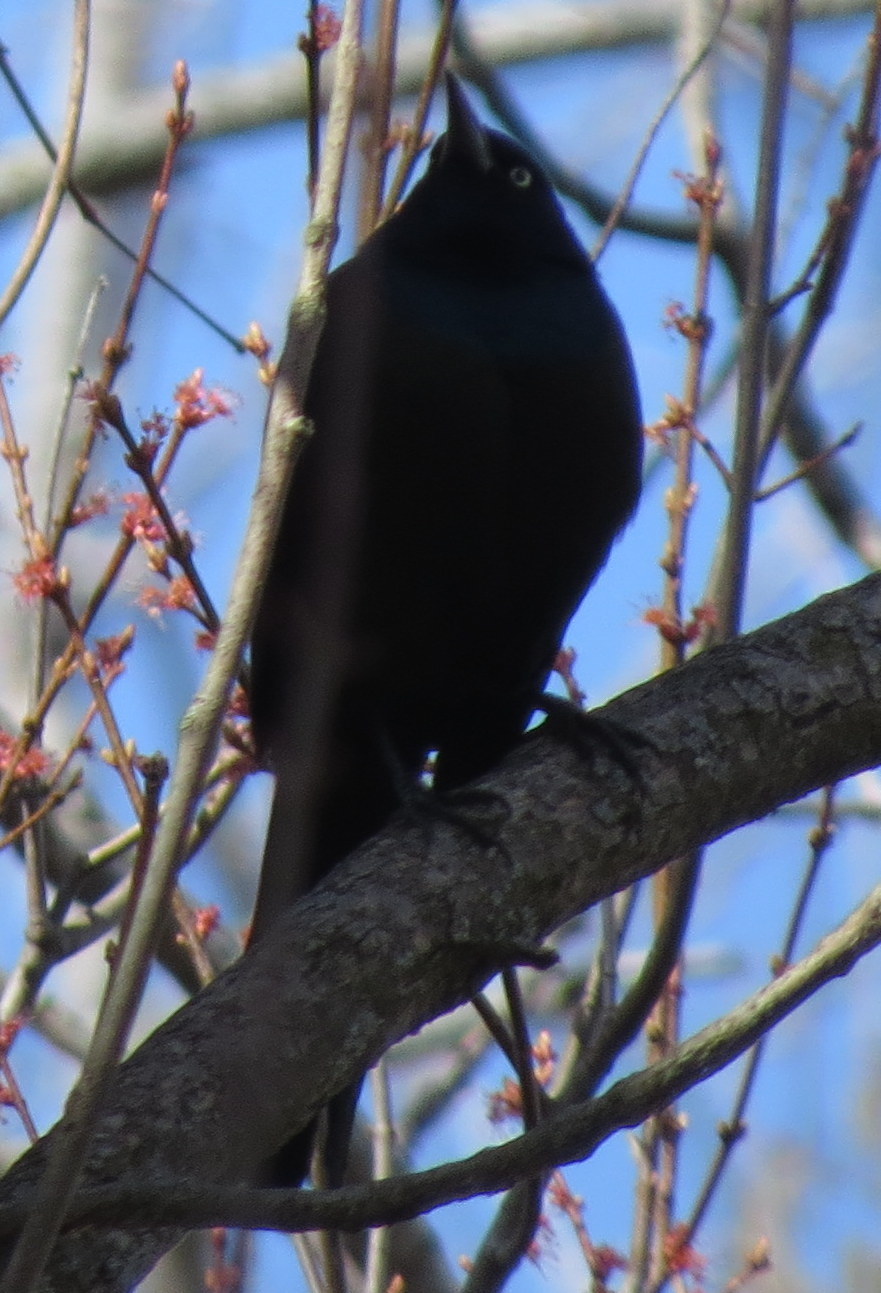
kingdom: Animalia
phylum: Chordata
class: Aves
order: Passeriformes
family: Icteridae
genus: Quiscalus
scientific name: Quiscalus quiscula
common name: Common grackle
